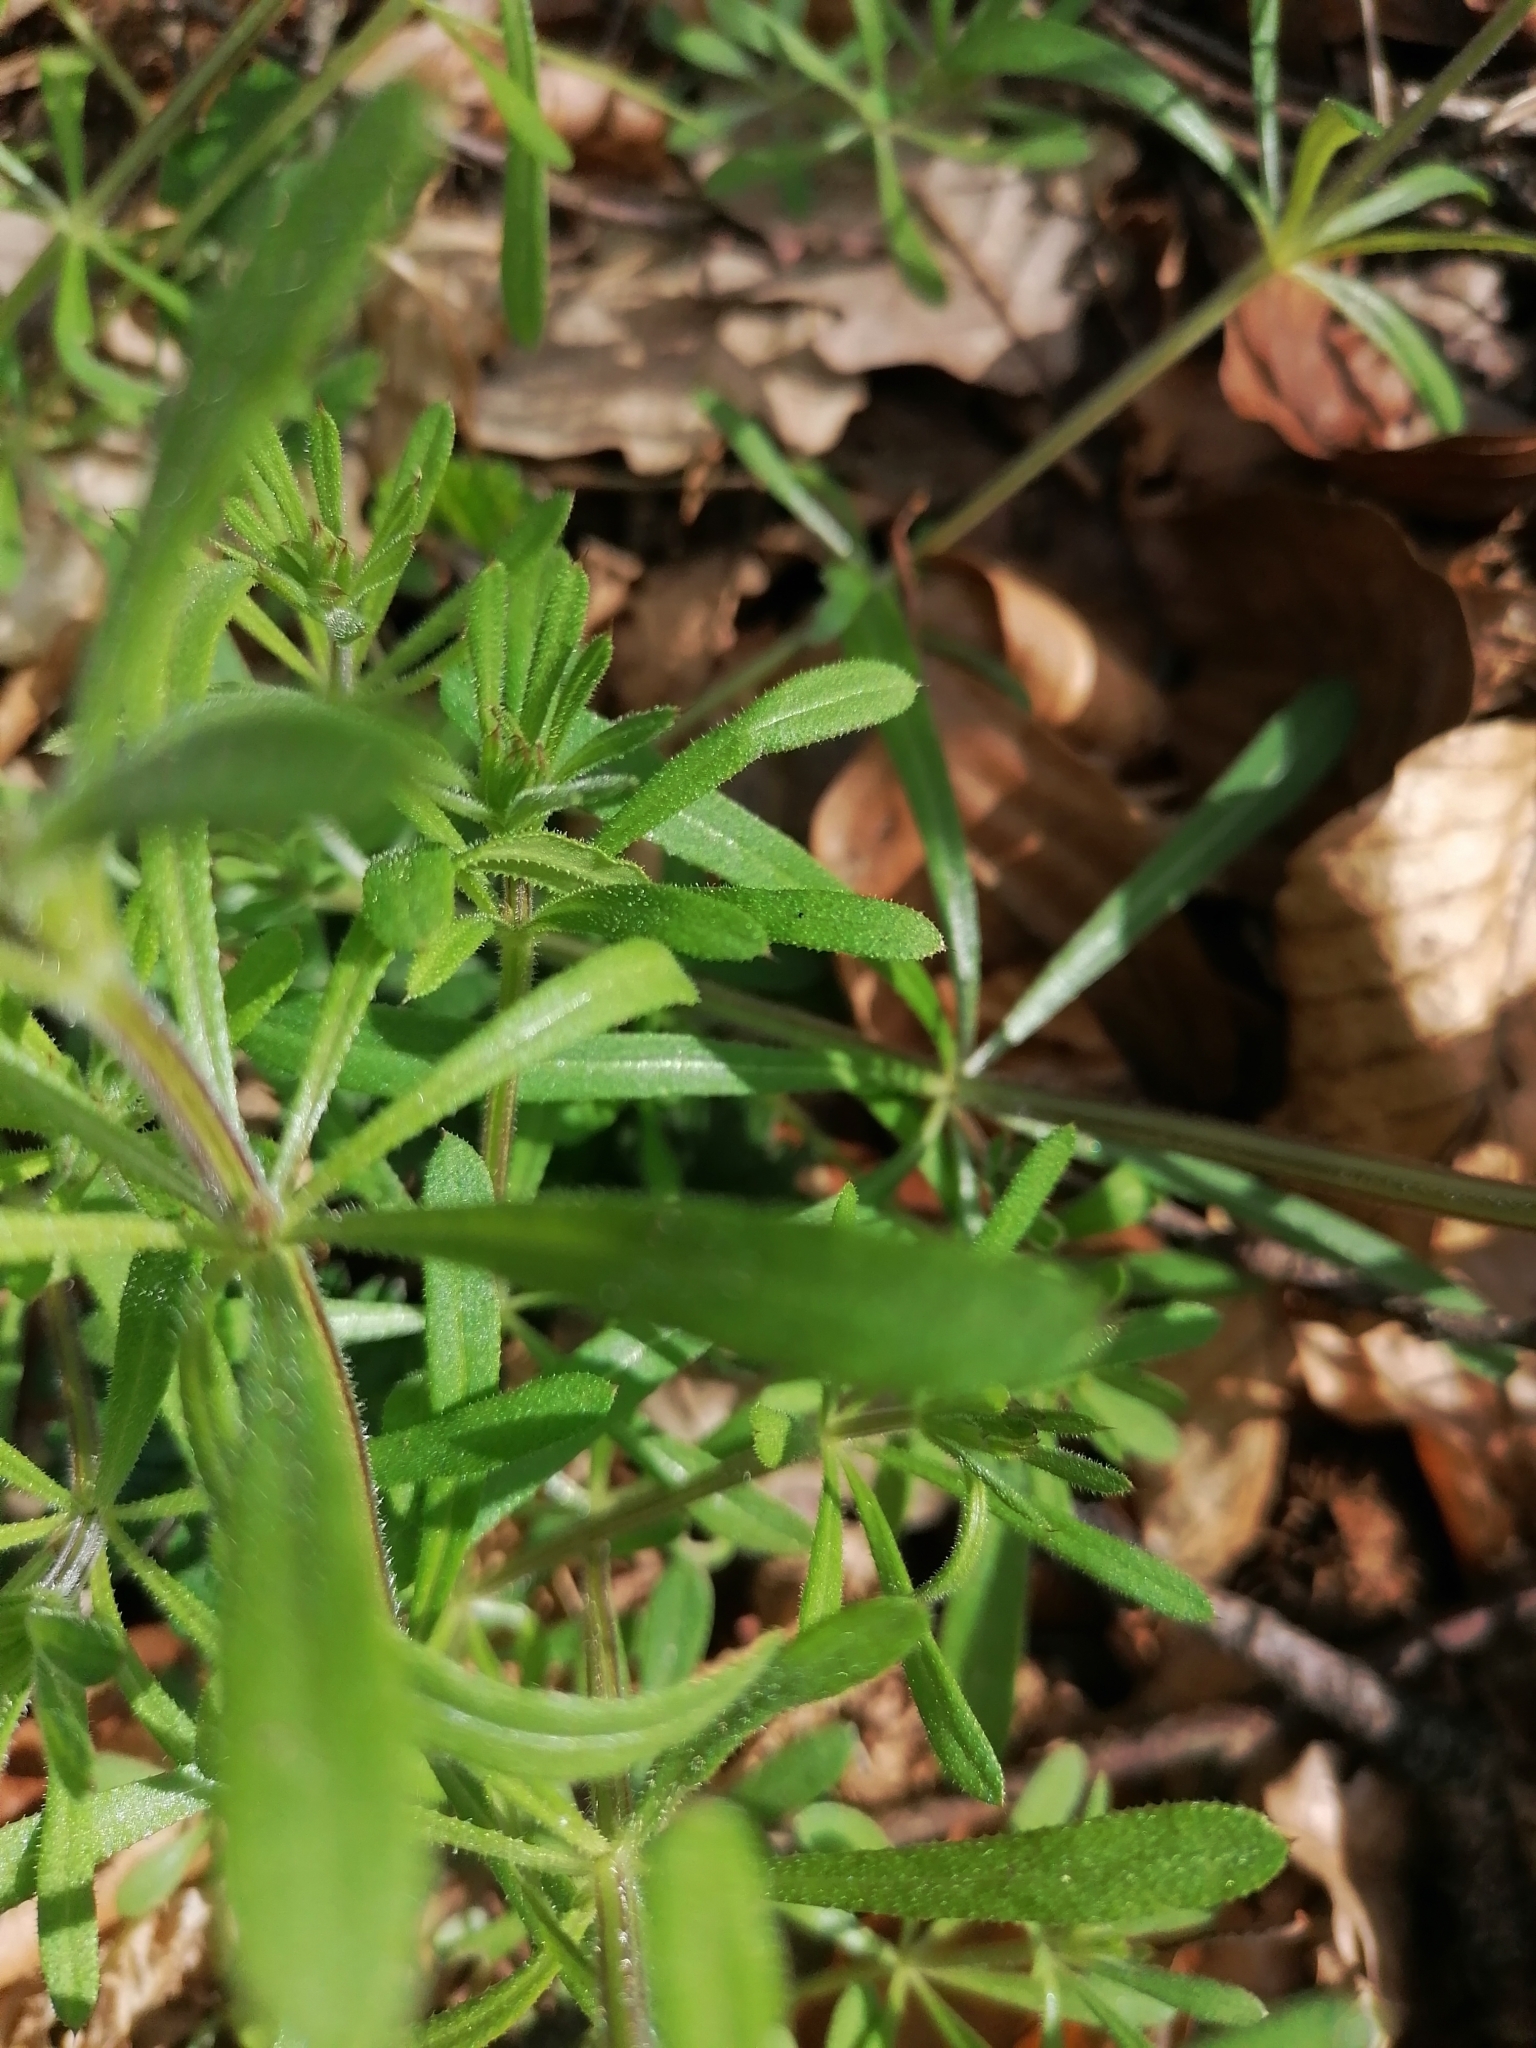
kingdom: Plantae
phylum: Tracheophyta
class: Magnoliopsida
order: Gentianales
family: Rubiaceae
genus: Galium
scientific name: Galium aparine
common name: Cleavers
